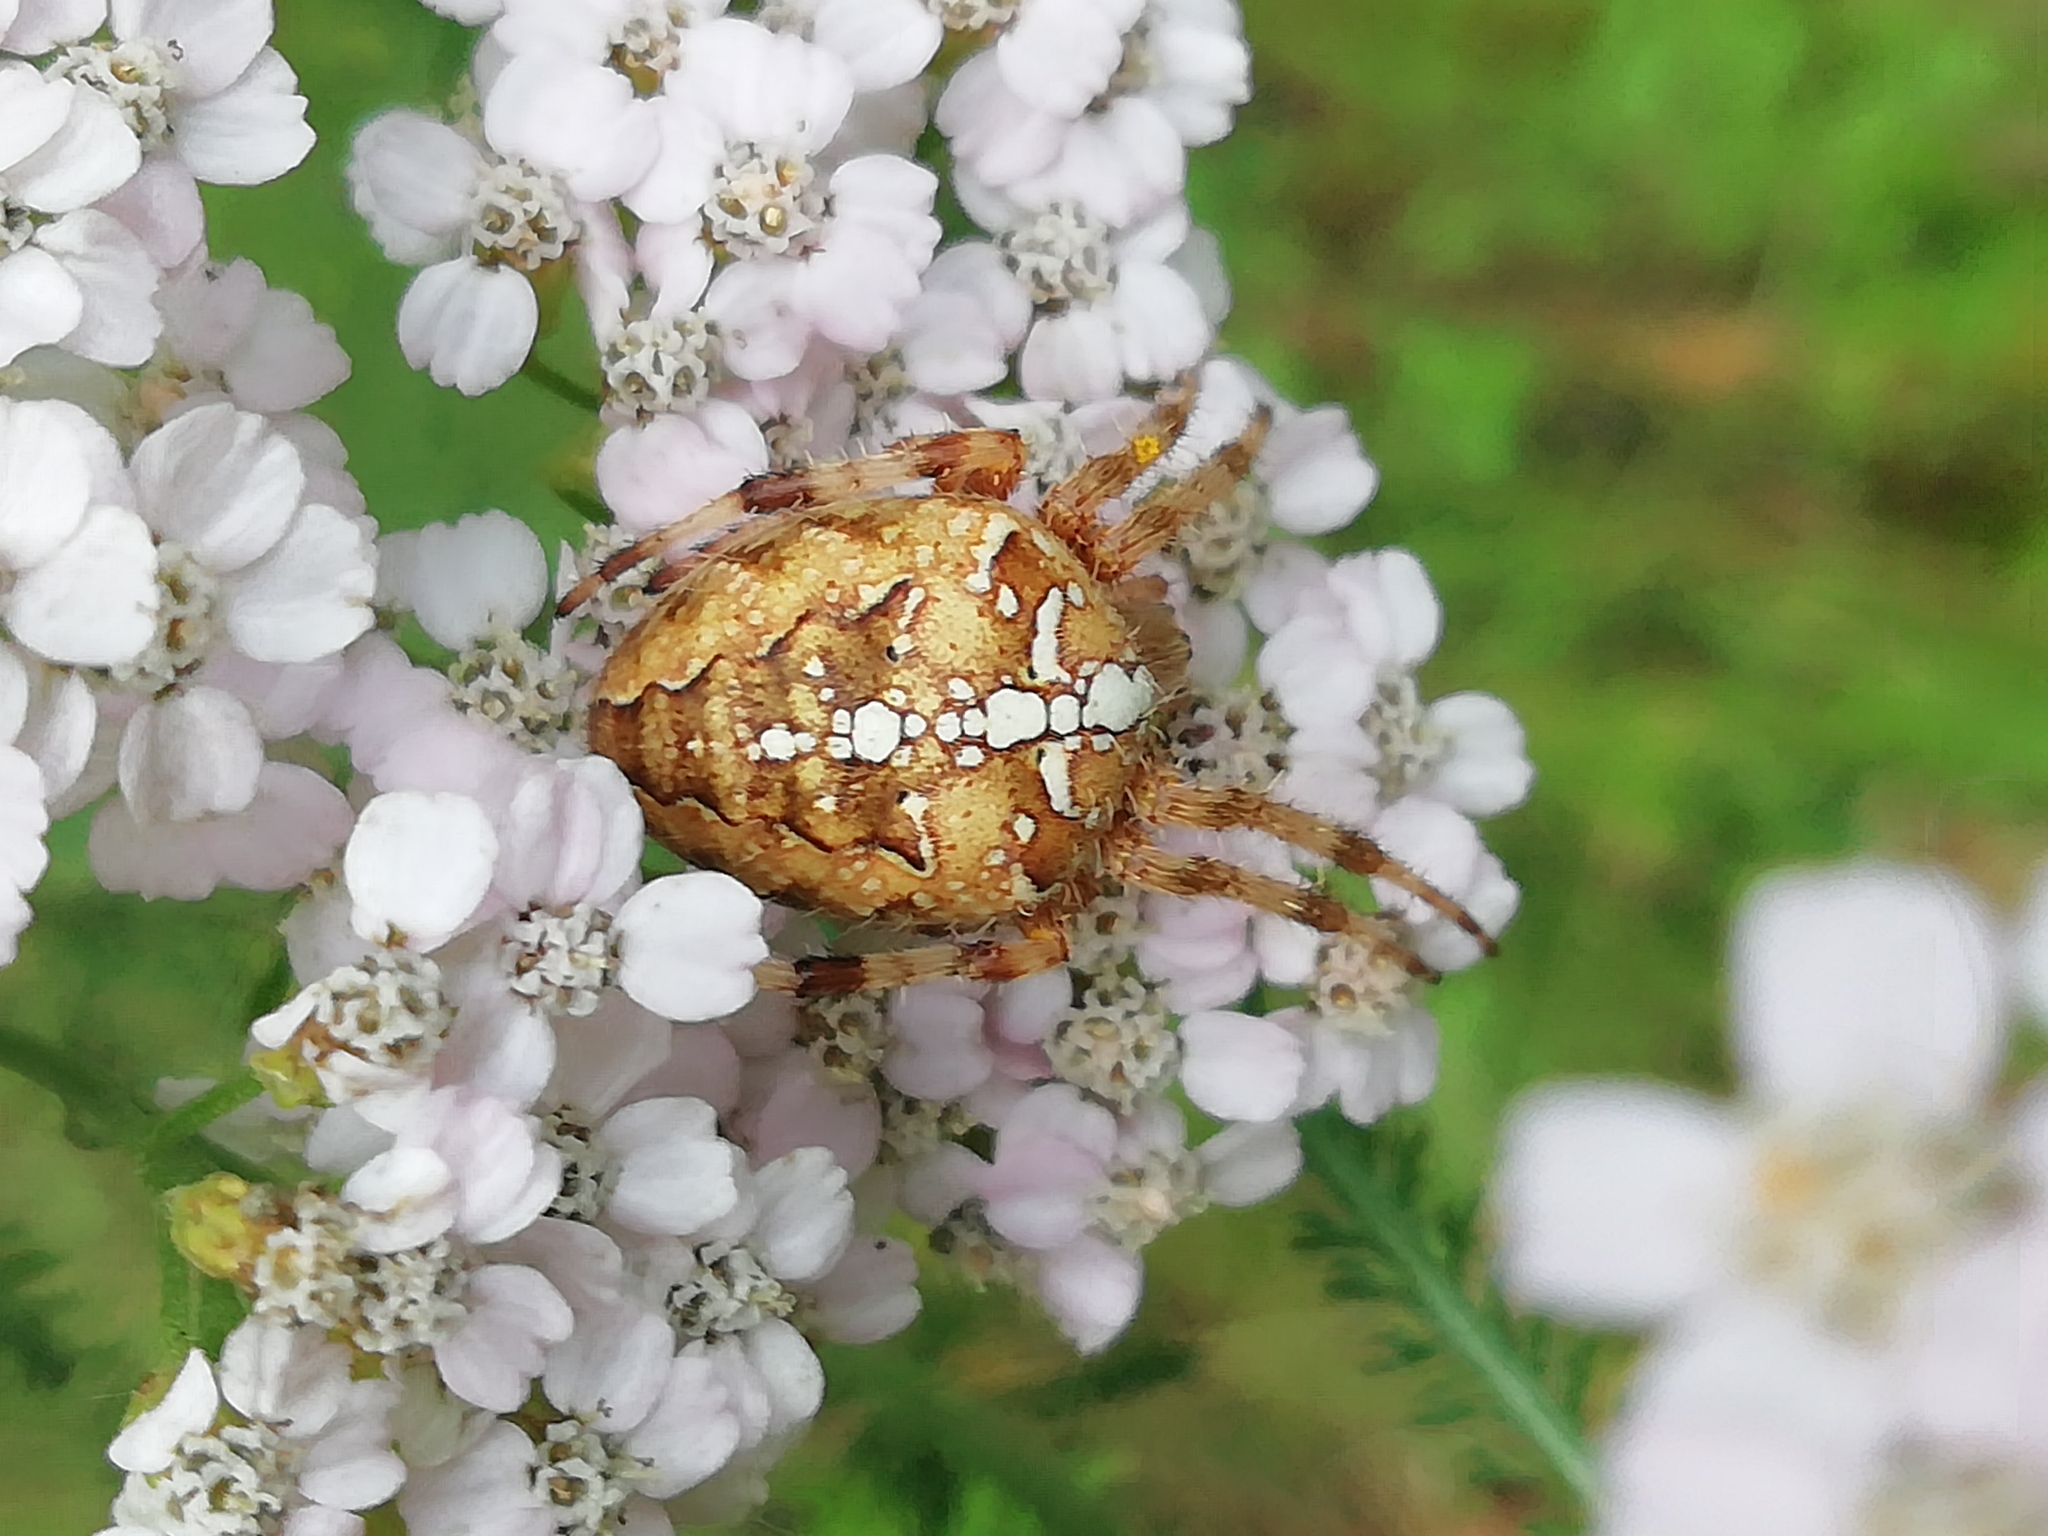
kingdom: Animalia
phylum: Arthropoda
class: Arachnida
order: Araneae
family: Araneidae
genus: Araneus
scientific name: Araneus diadematus
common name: Cross orbweaver
